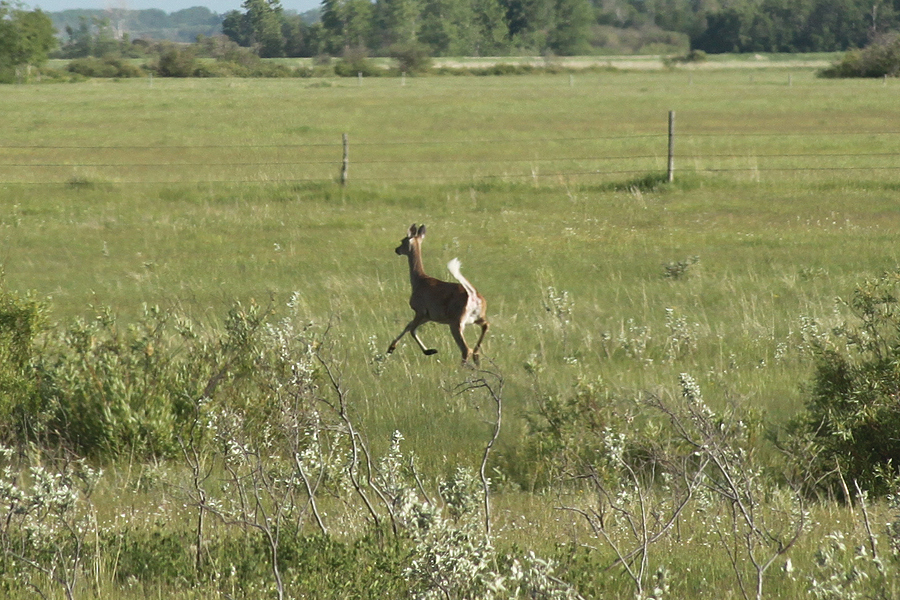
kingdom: Animalia
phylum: Chordata
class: Mammalia
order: Artiodactyla
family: Cervidae
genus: Odocoileus
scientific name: Odocoileus virginianus
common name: White-tailed deer
